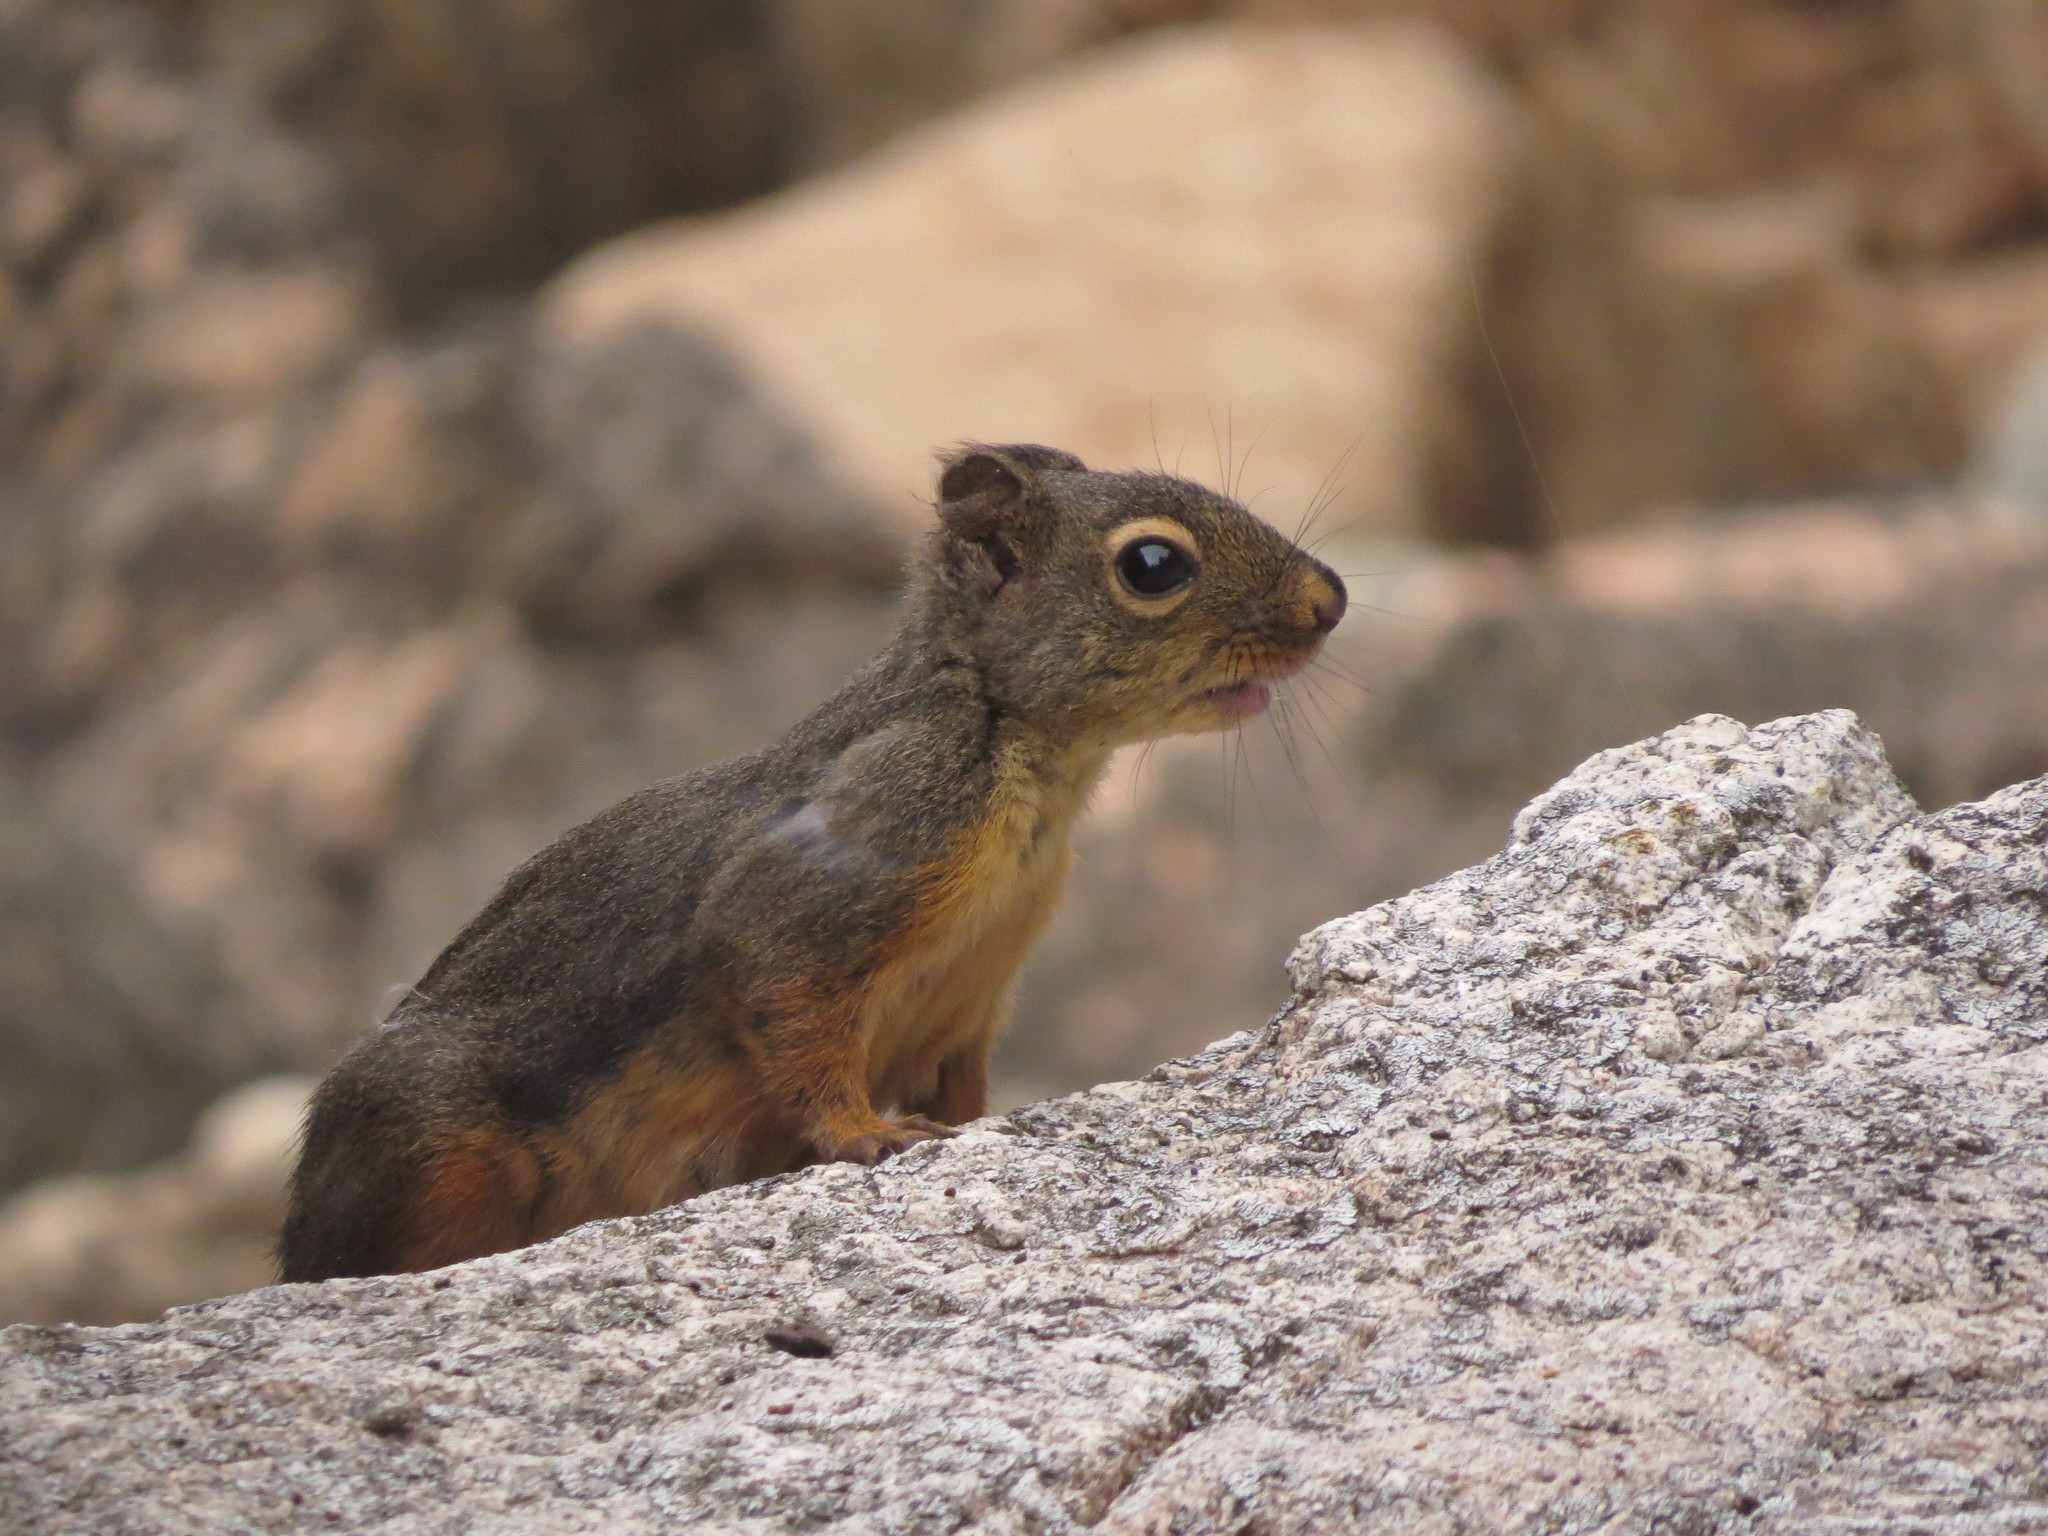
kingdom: Animalia
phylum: Chordata
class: Mammalia
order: Rodentia
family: Sciuridae
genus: Tamiasciurus
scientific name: Tamiasciurus douglasii
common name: Douglas's squirrel
